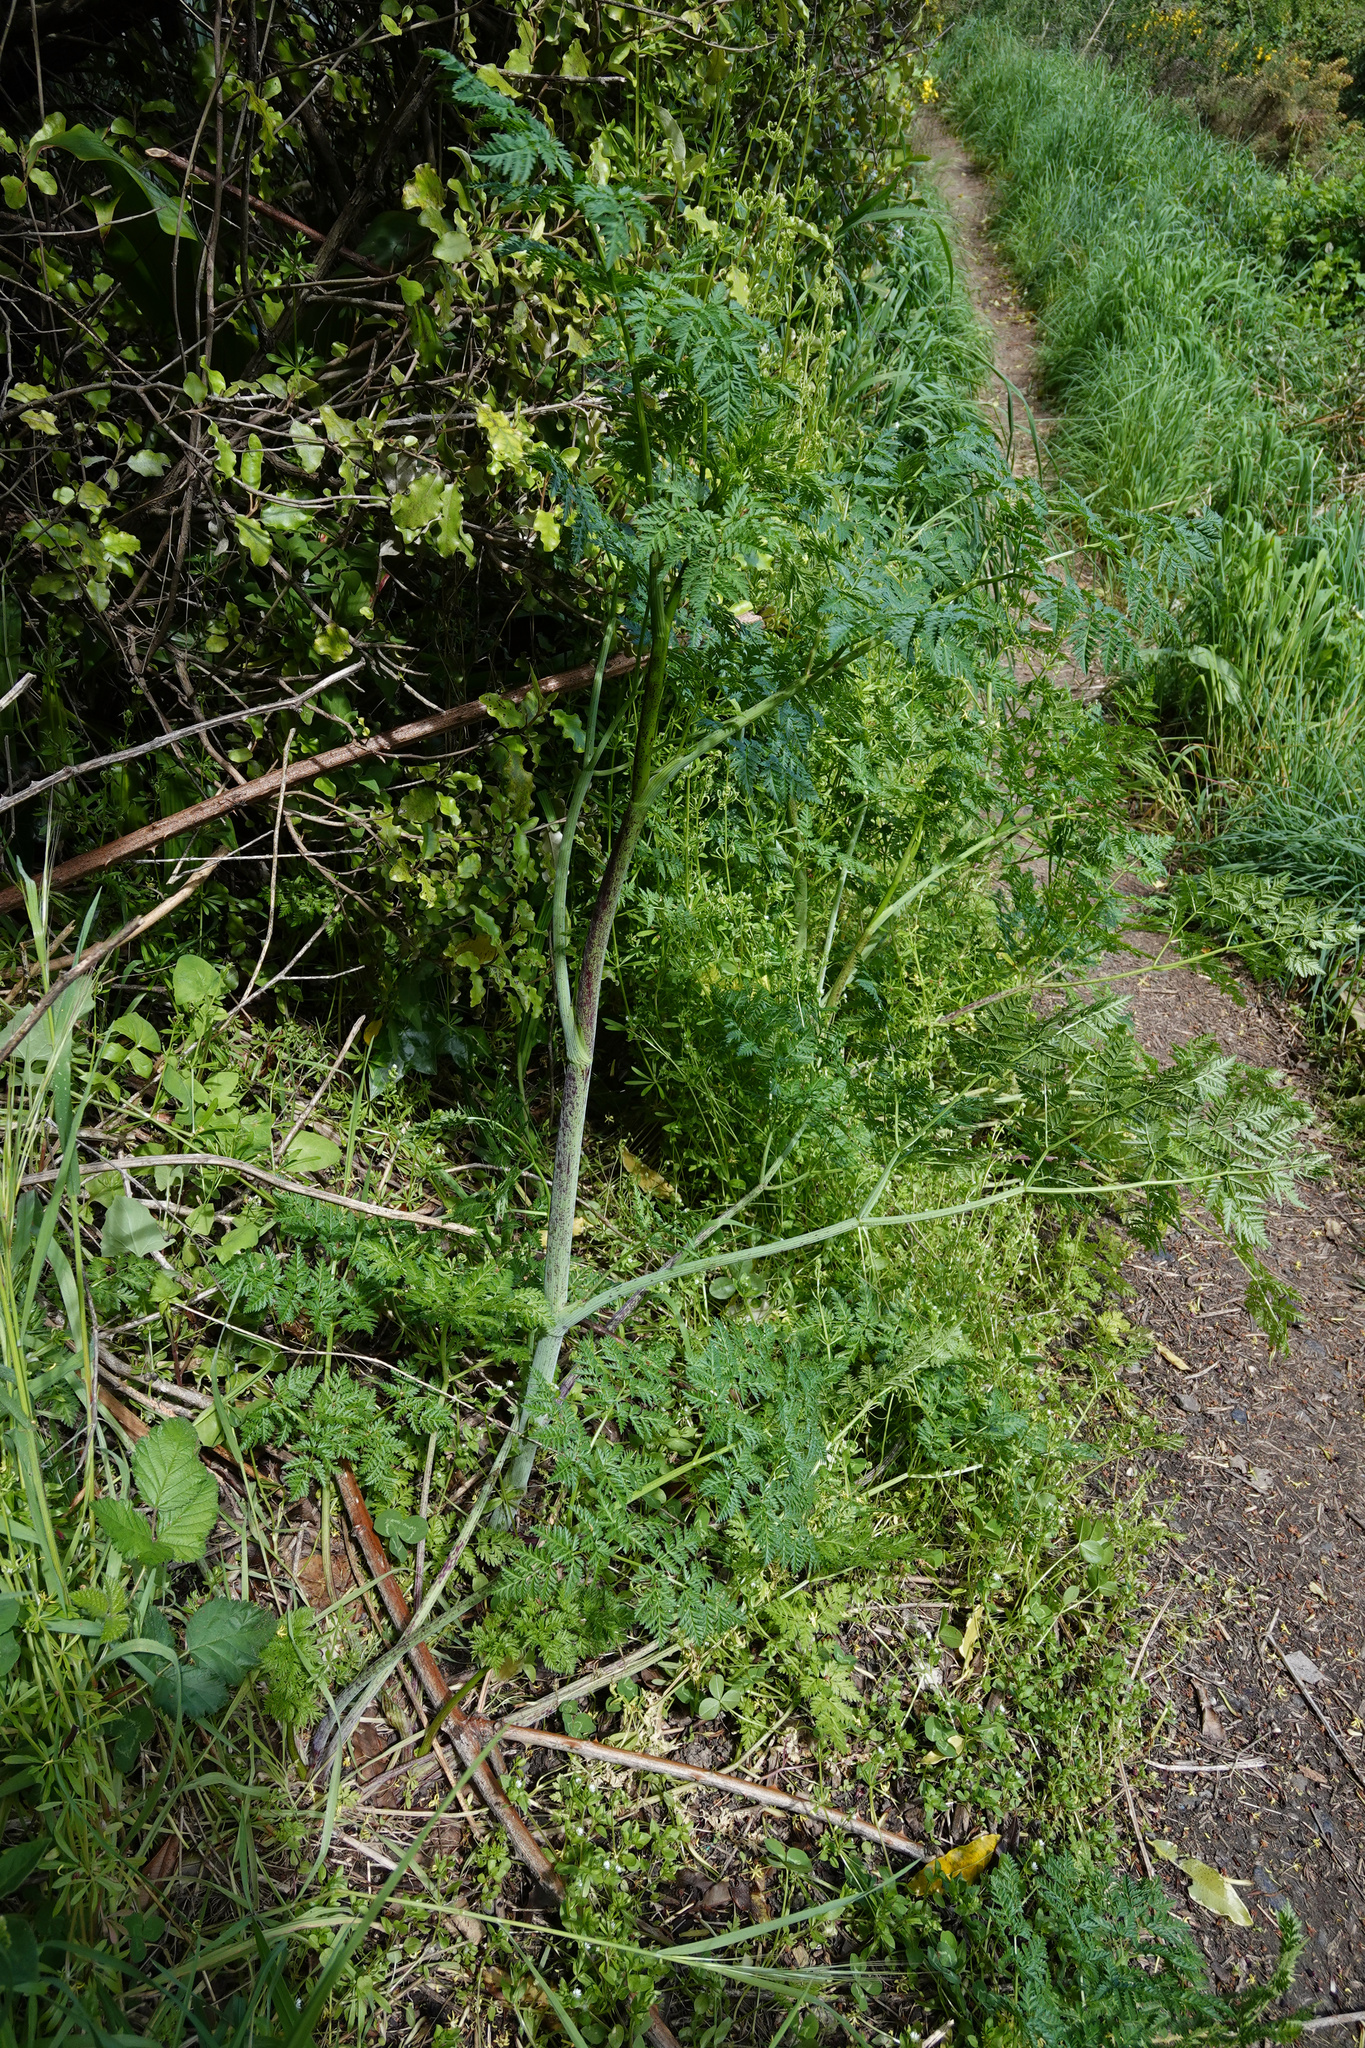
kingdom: Plantae
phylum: Tracheophyta
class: Magnoliopsida
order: Apiales
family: Apiaceae
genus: Conium
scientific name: Conium maculatum
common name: Hemlock
